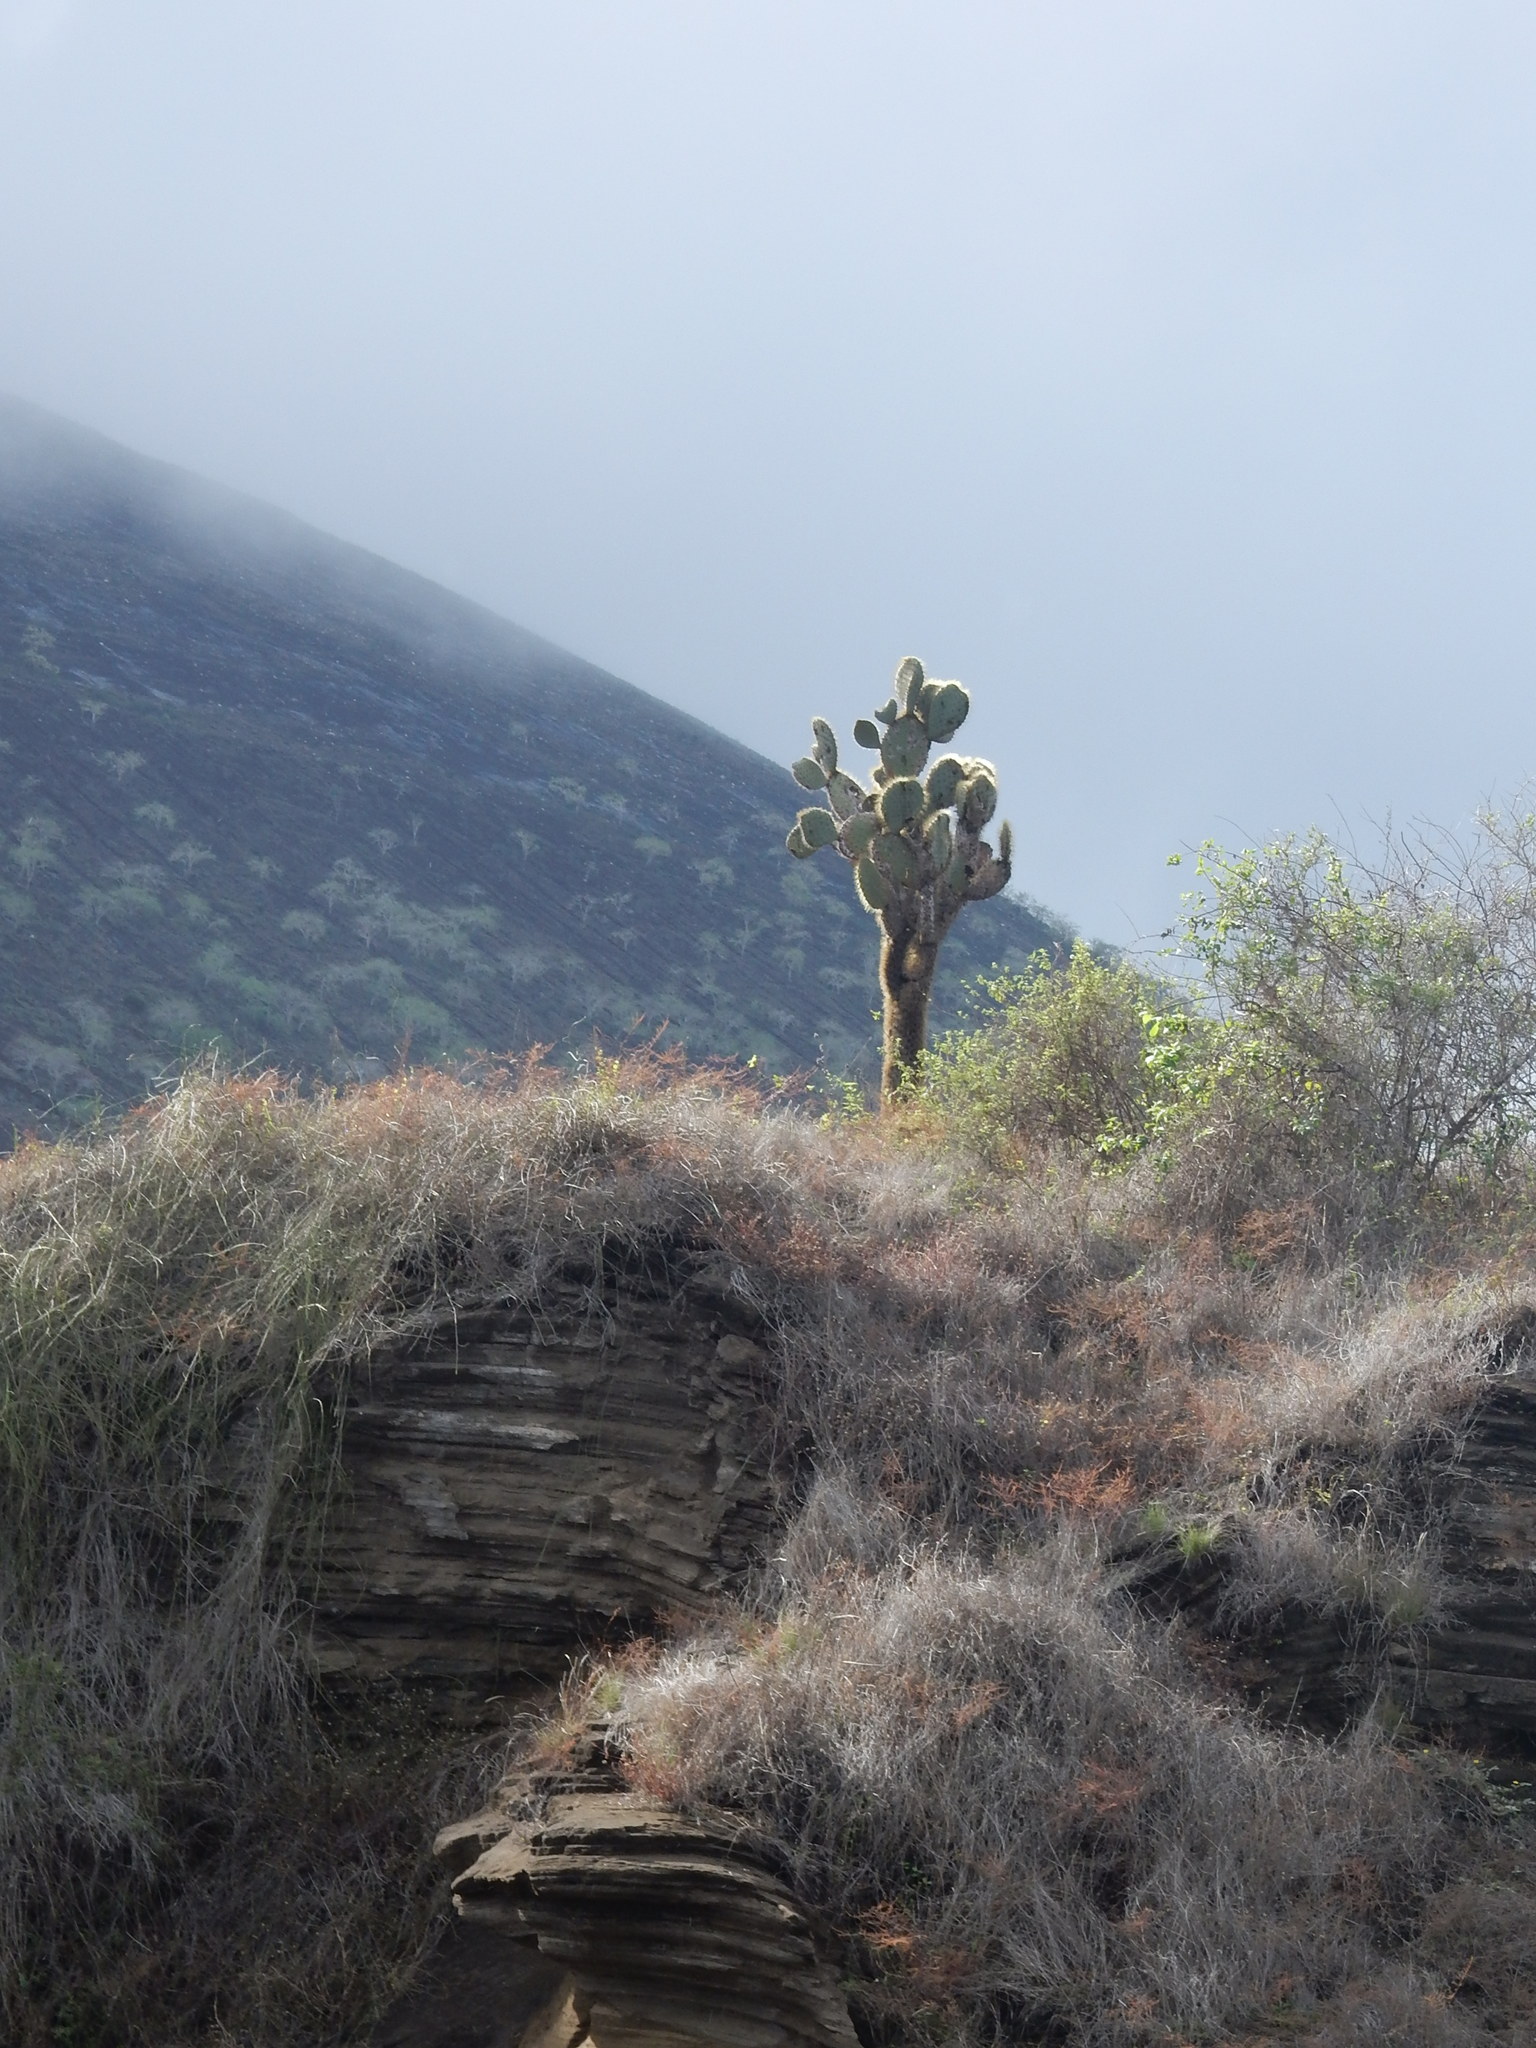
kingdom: Plantae
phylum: Tracheophyta
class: Magnoliopsida
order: Caryophyllales
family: Cactaceae
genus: Opuntia
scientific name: Opuntia galapageia
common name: Galápagos prickly pear
